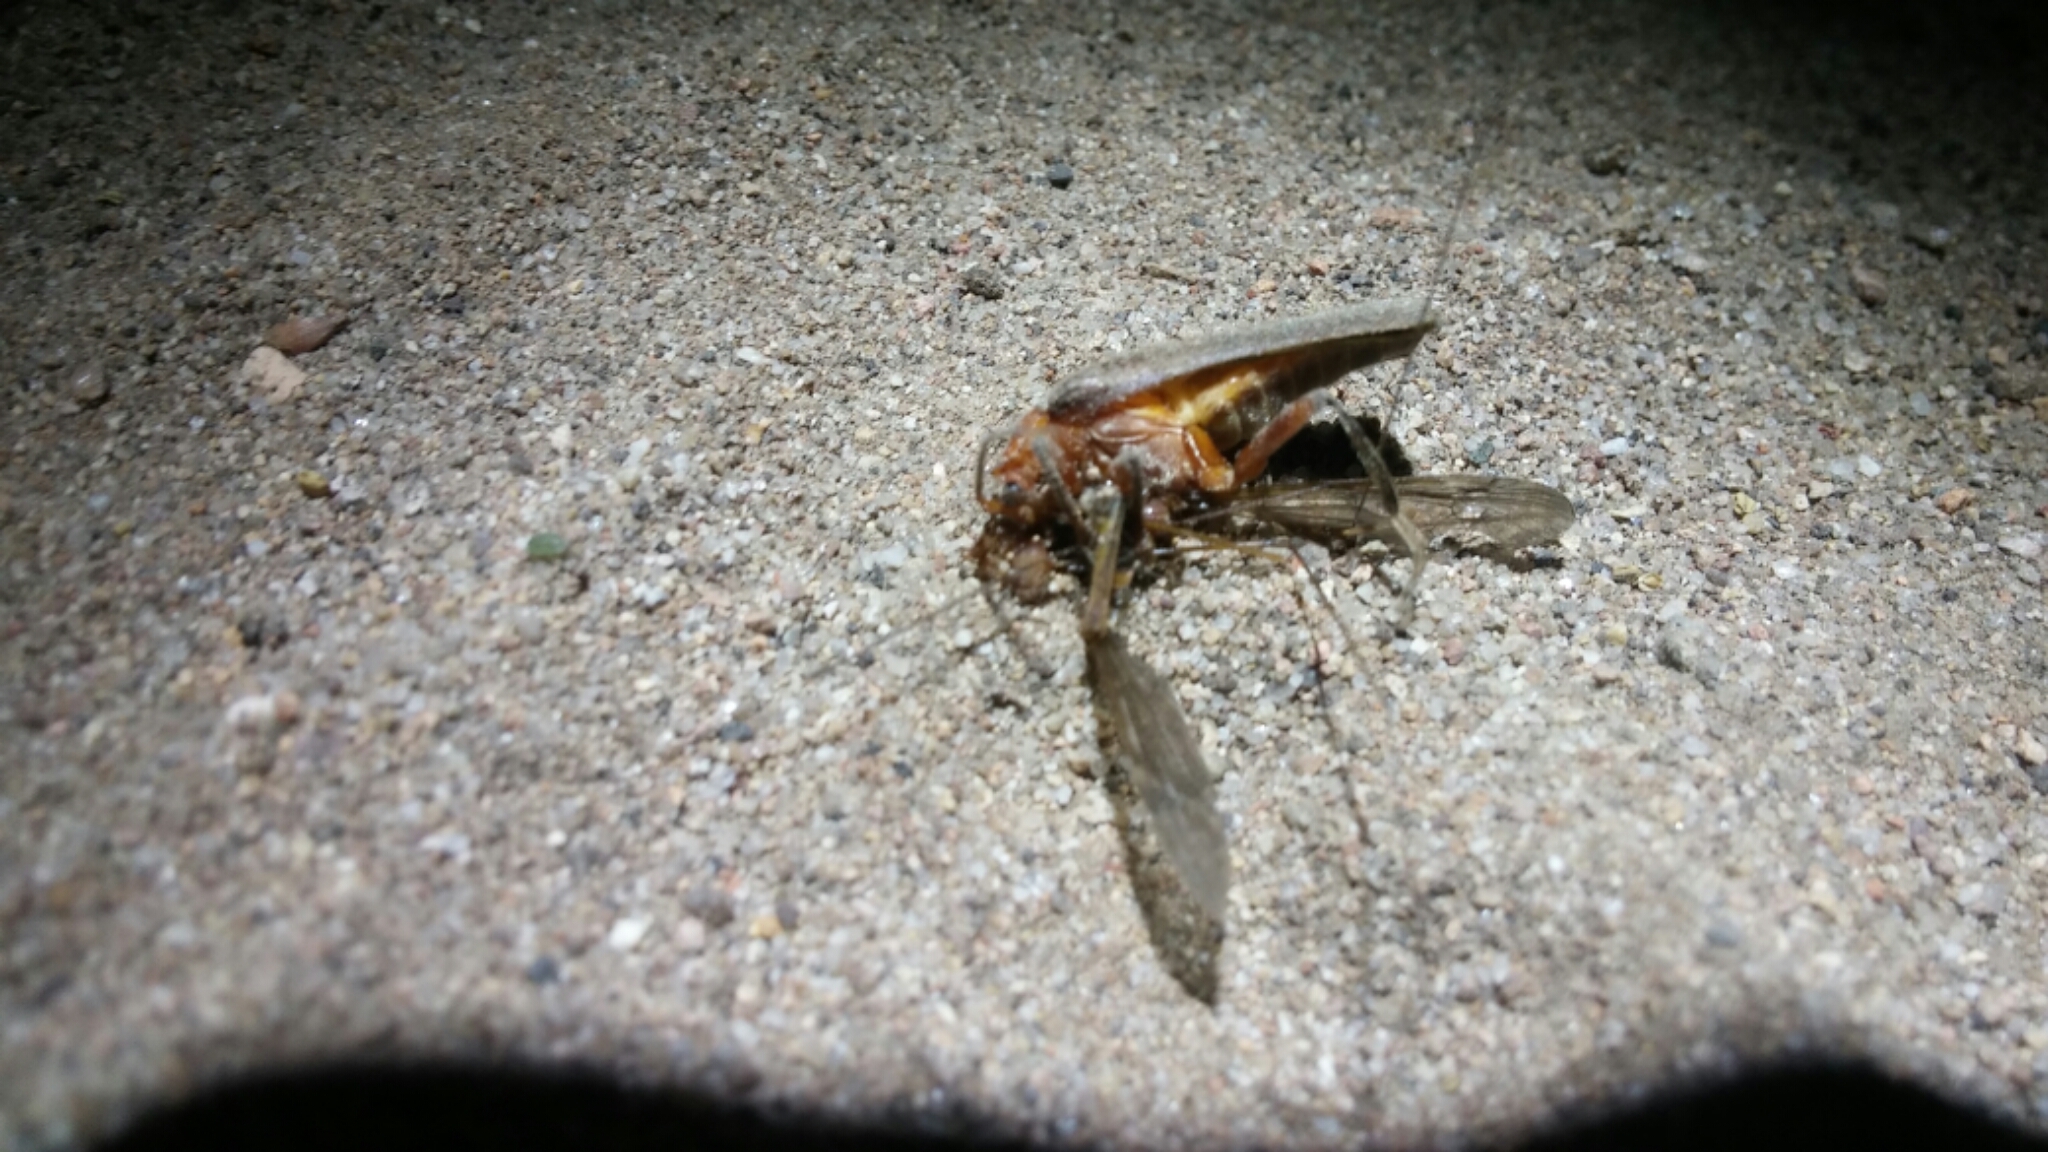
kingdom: Animalia
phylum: Arthropoda
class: Insecta
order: Coleoptera
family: Cantharidae
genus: Pacificanthia
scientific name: Pacificanthia consors
